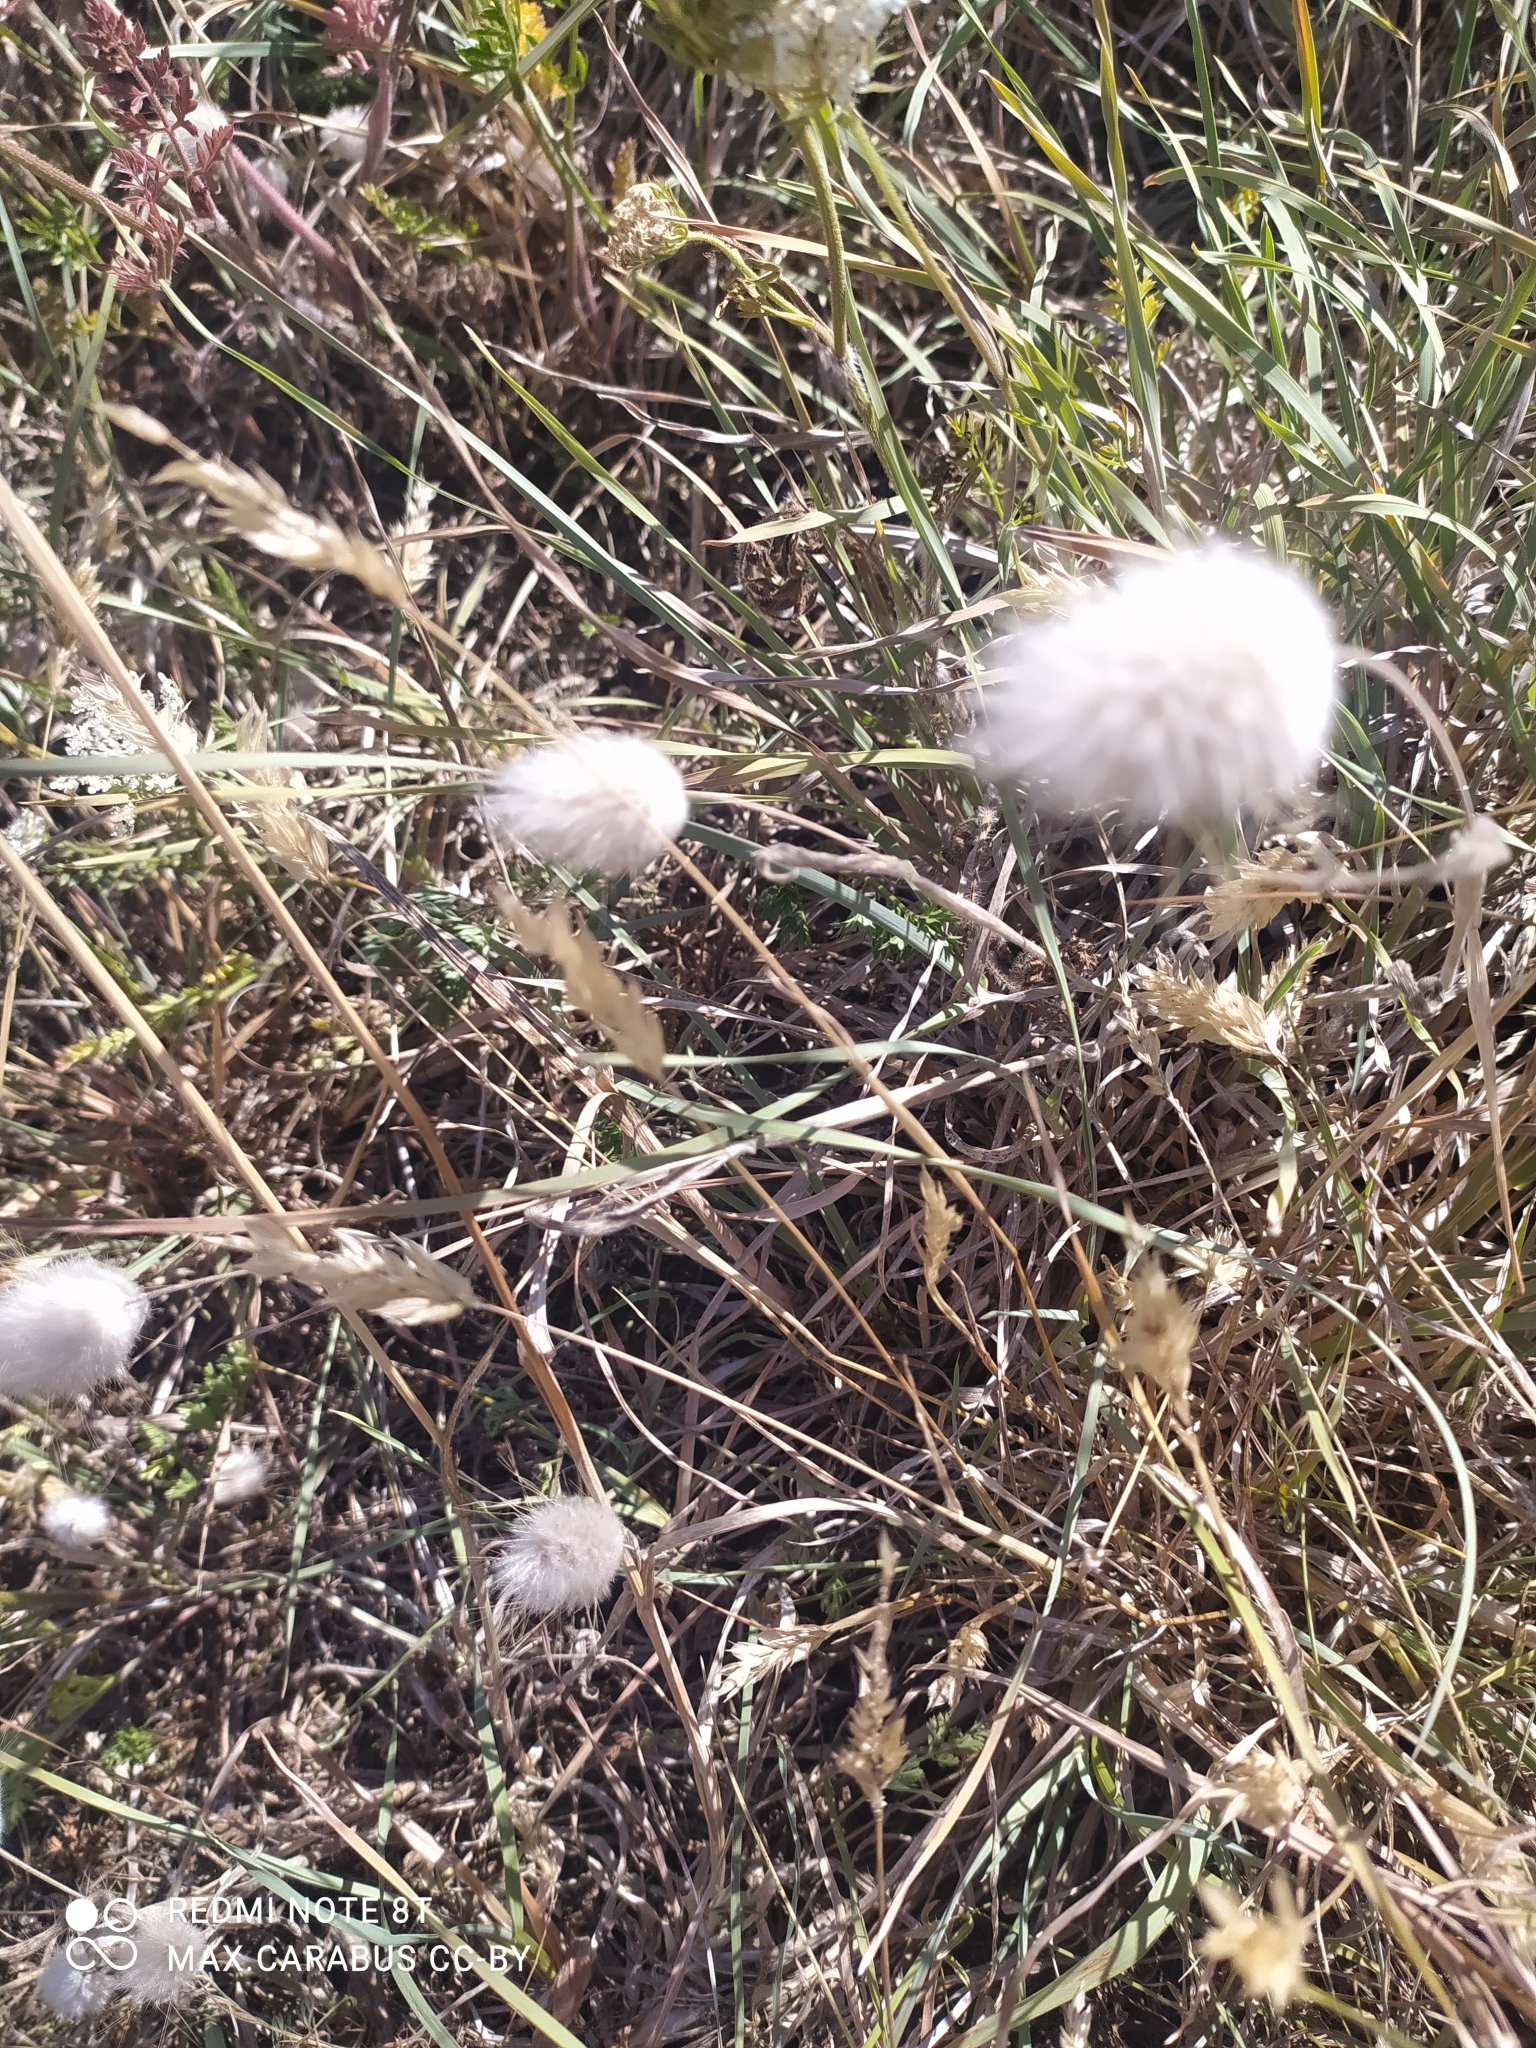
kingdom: Plantae
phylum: Tracheophyta
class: Liliopsida
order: Poales
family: Poaceae
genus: Lagurus
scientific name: Lagurus ovatus
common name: Hare's-tail
